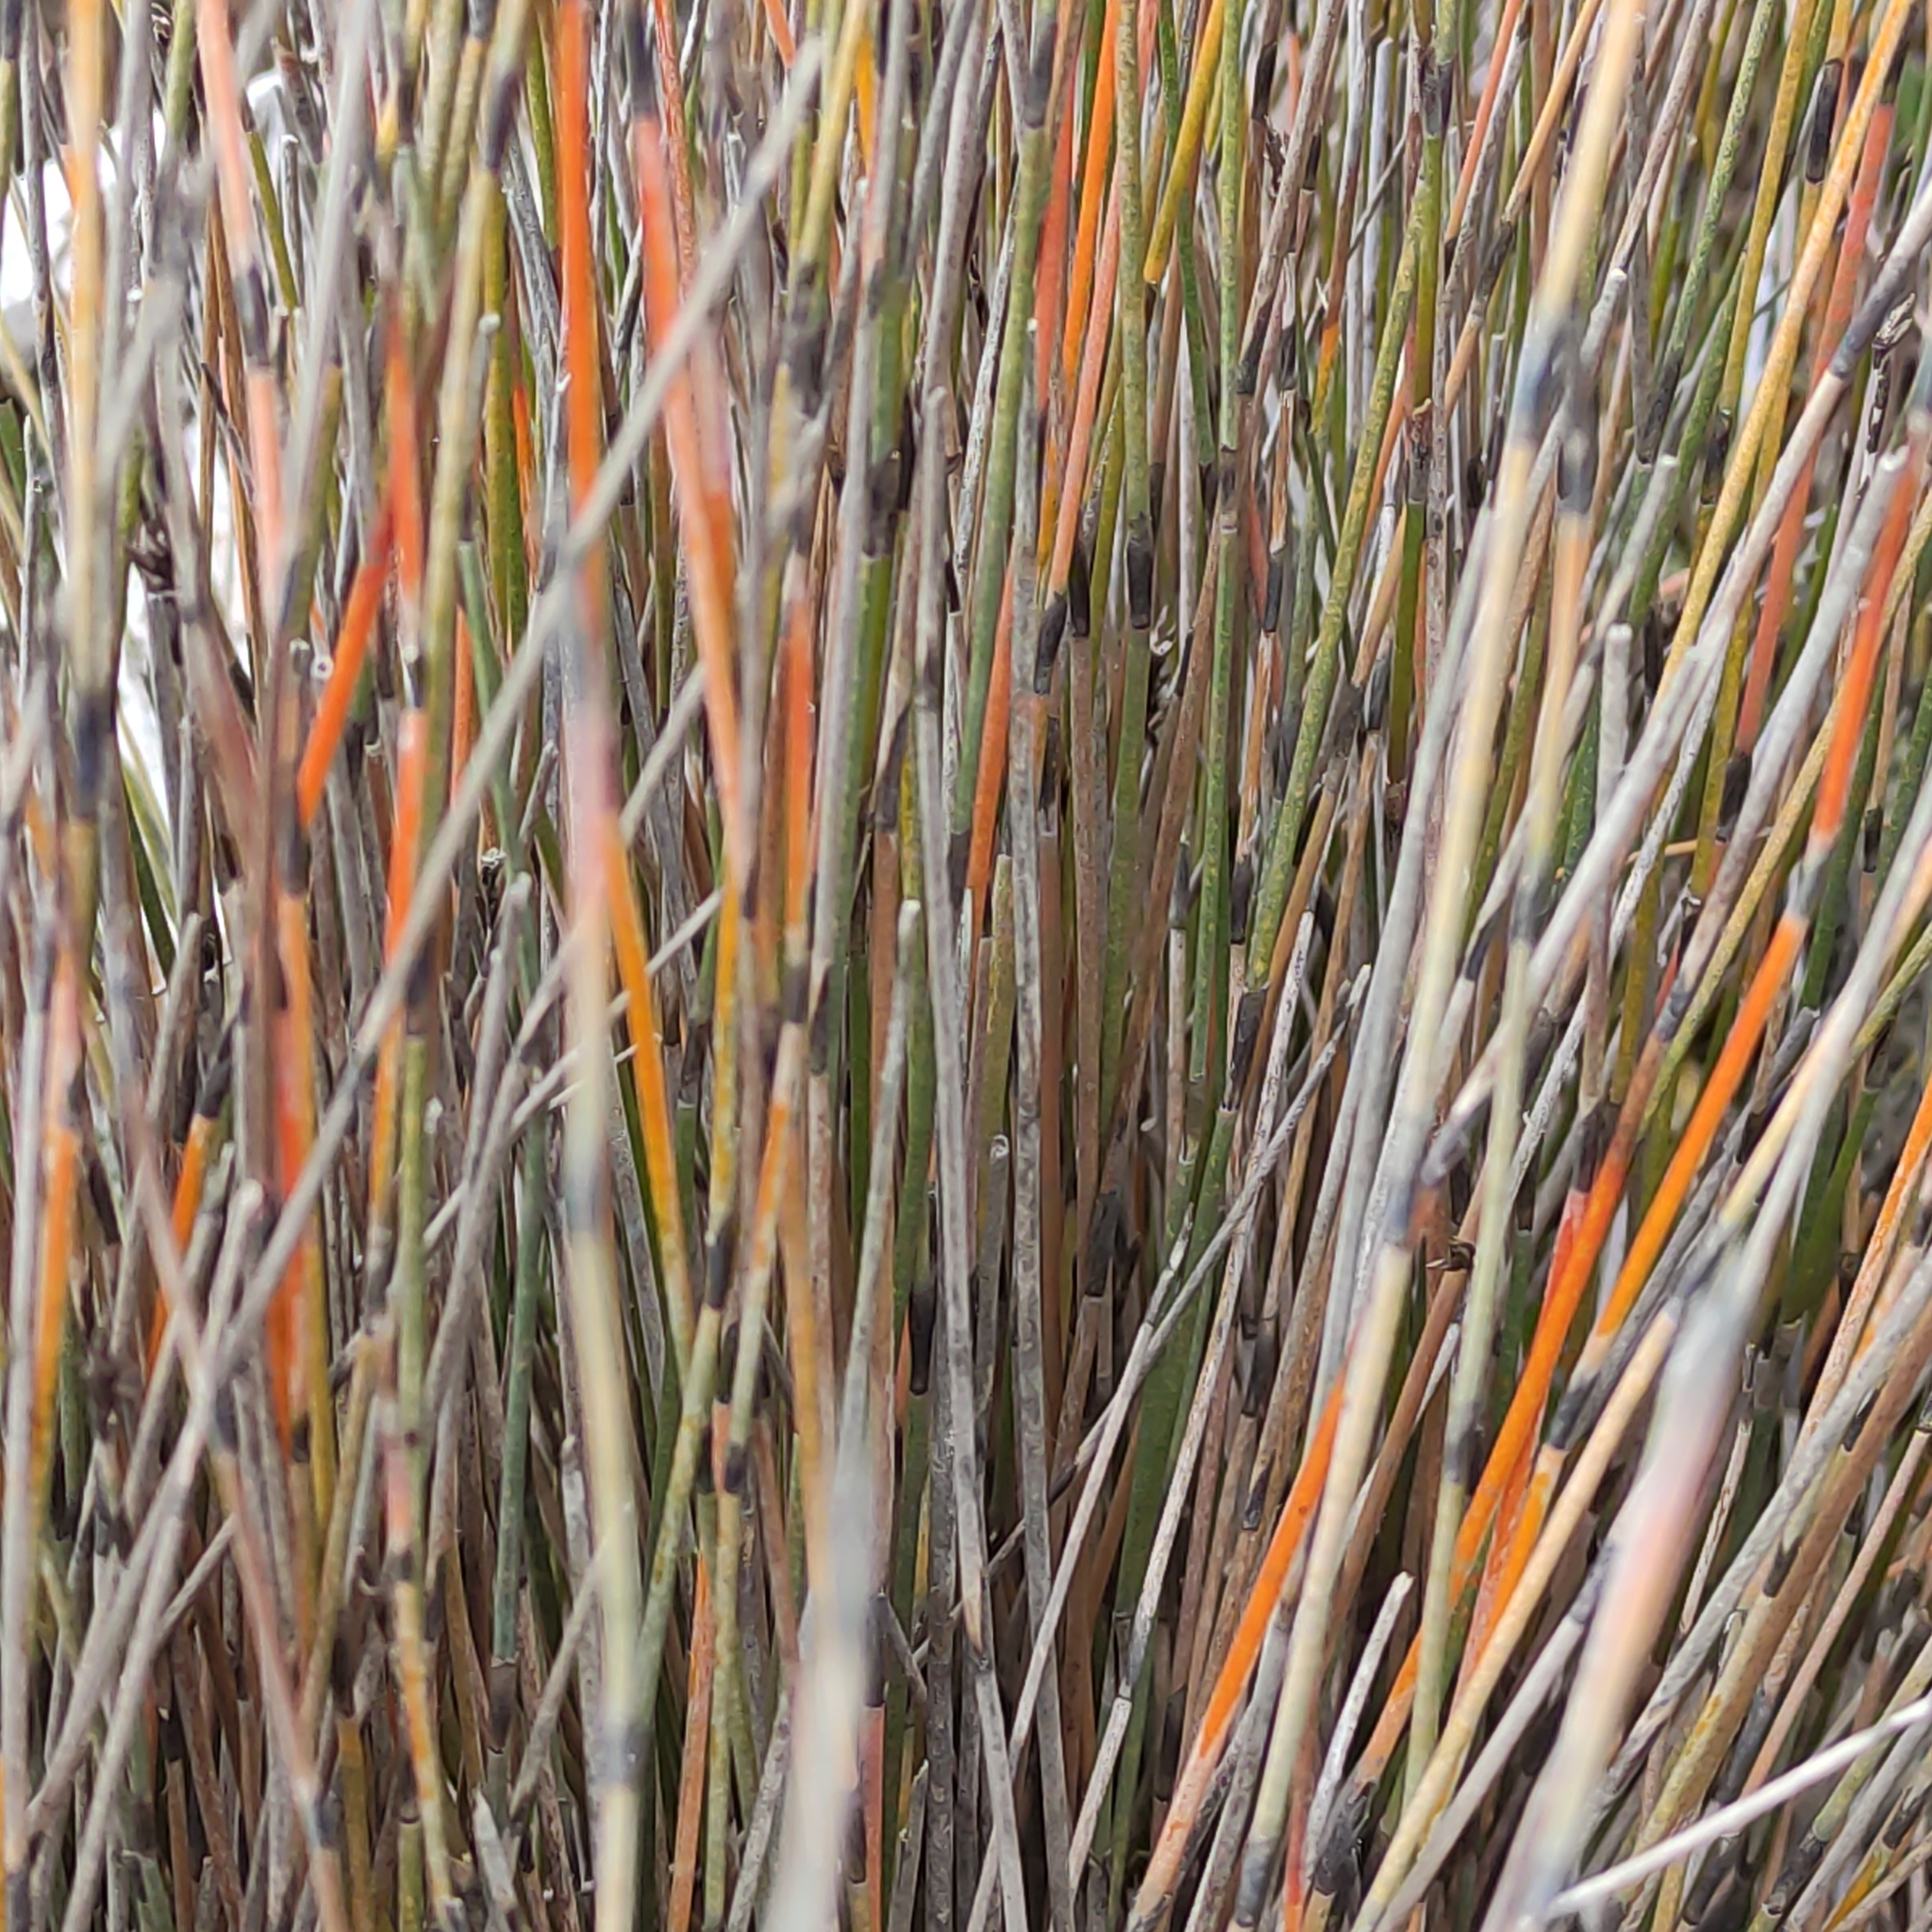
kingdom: Plantae
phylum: Tracheophyta
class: Liliopsida
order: Poales
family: Restionaceae
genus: Apodasmia
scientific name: Apodasmia similis
